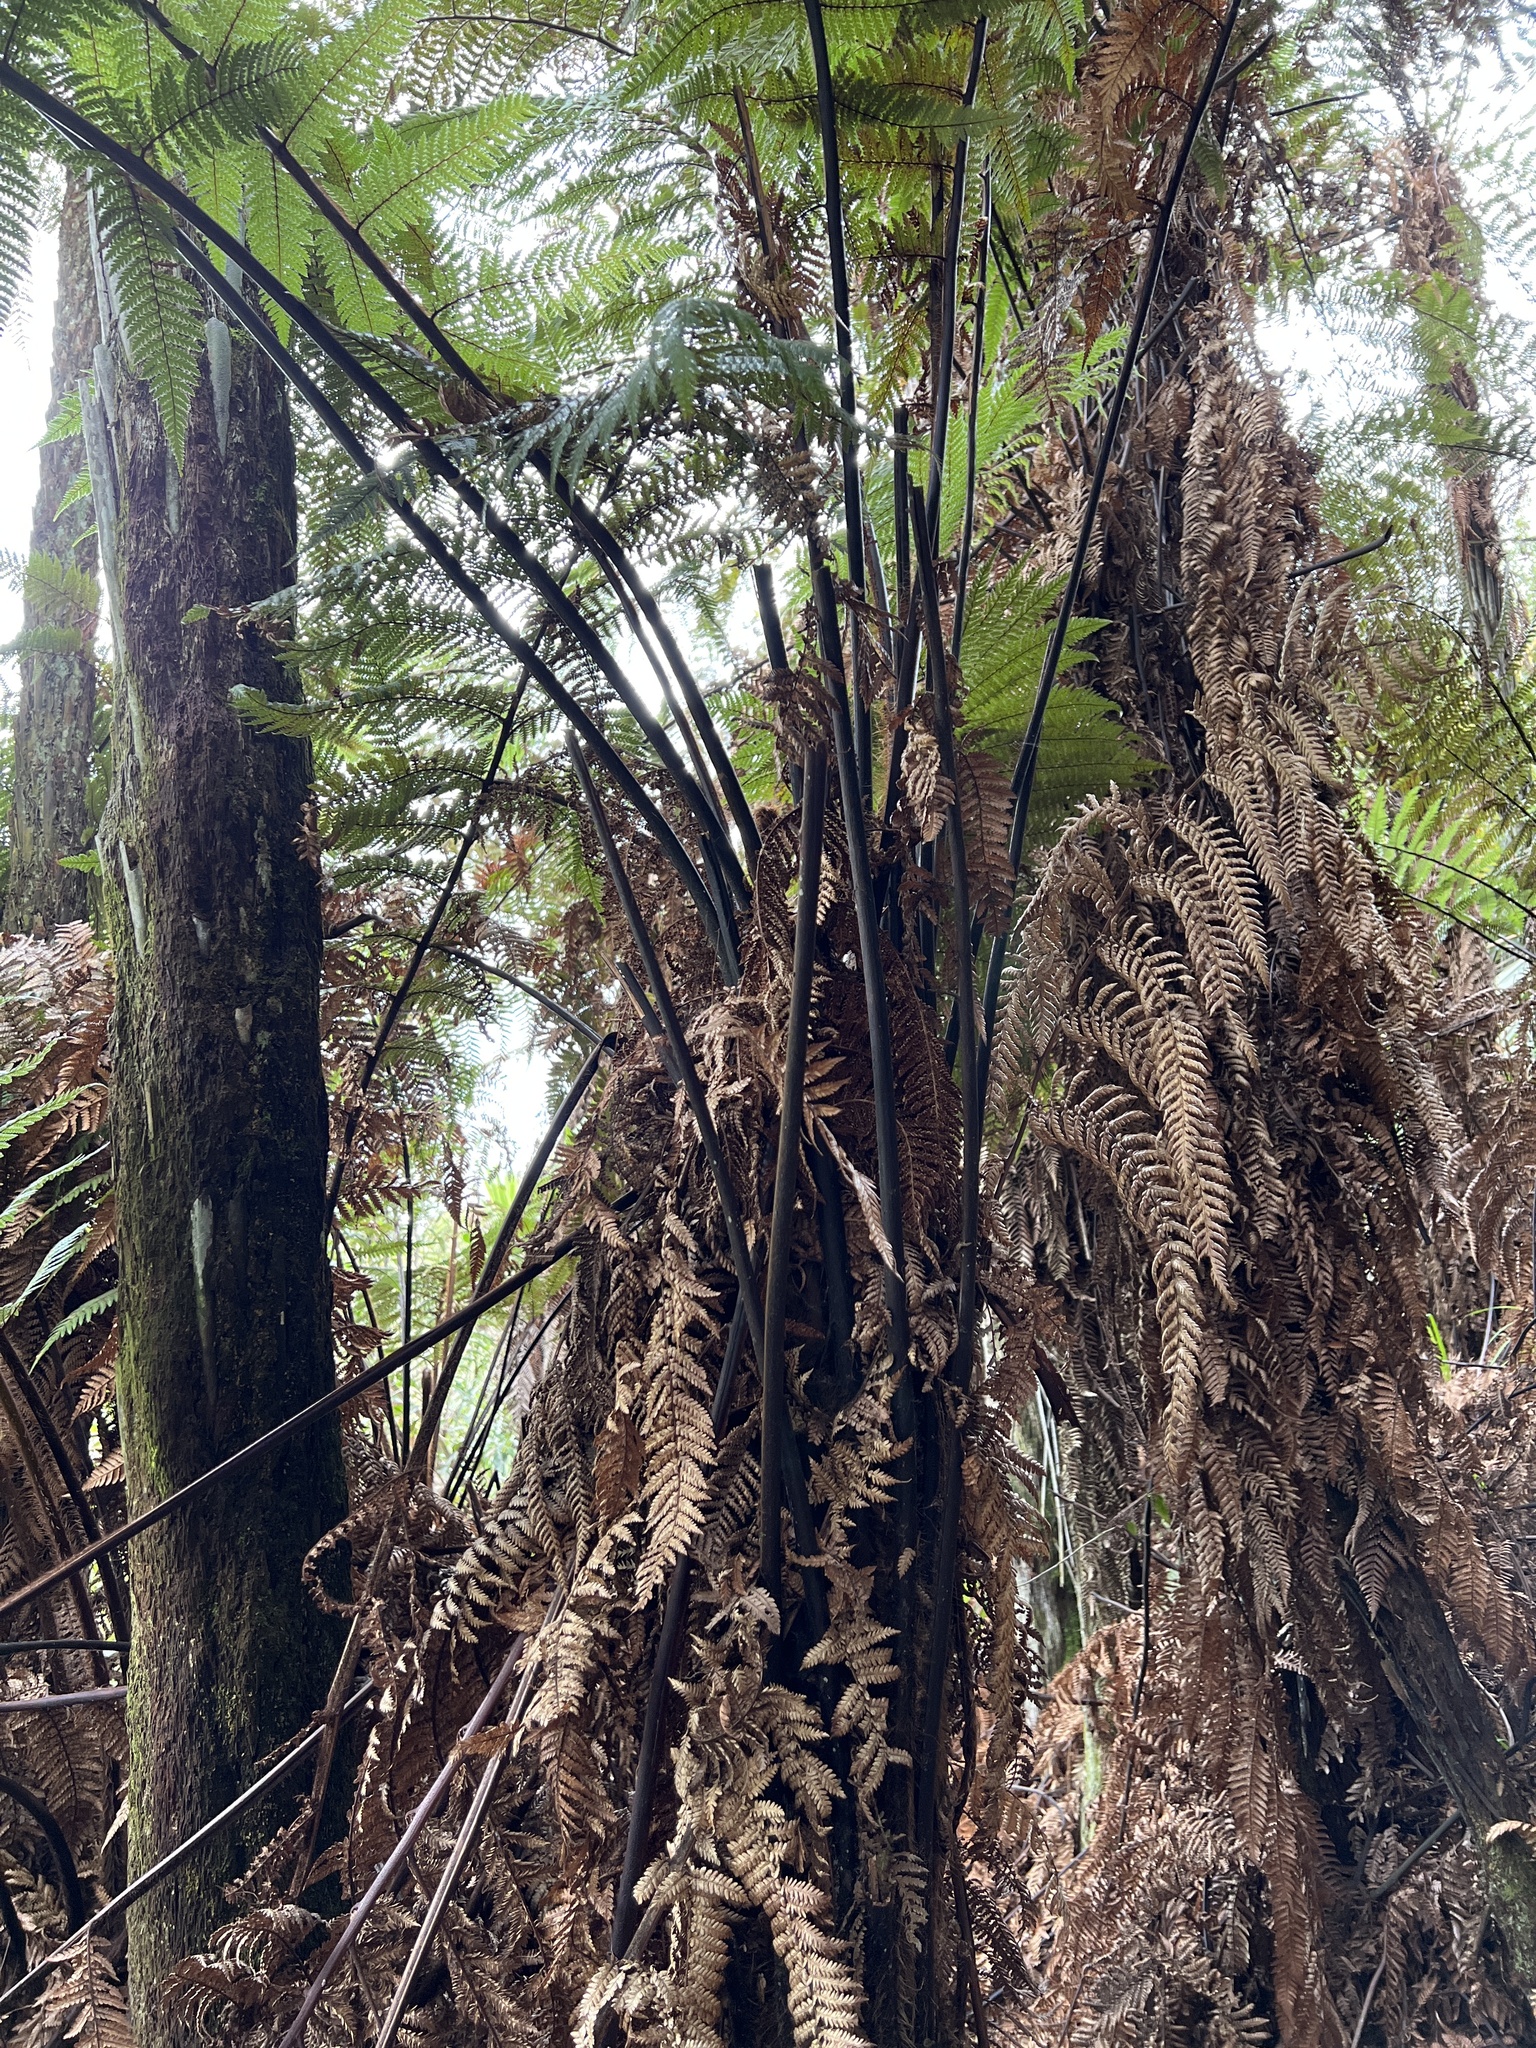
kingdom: Plantae
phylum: Tracheophyta
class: Polypodiopsida
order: Cyatheales
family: Dicksoniaceae
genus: Dicksonia
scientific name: Dicksonia squarrosa
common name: Hard treefern
